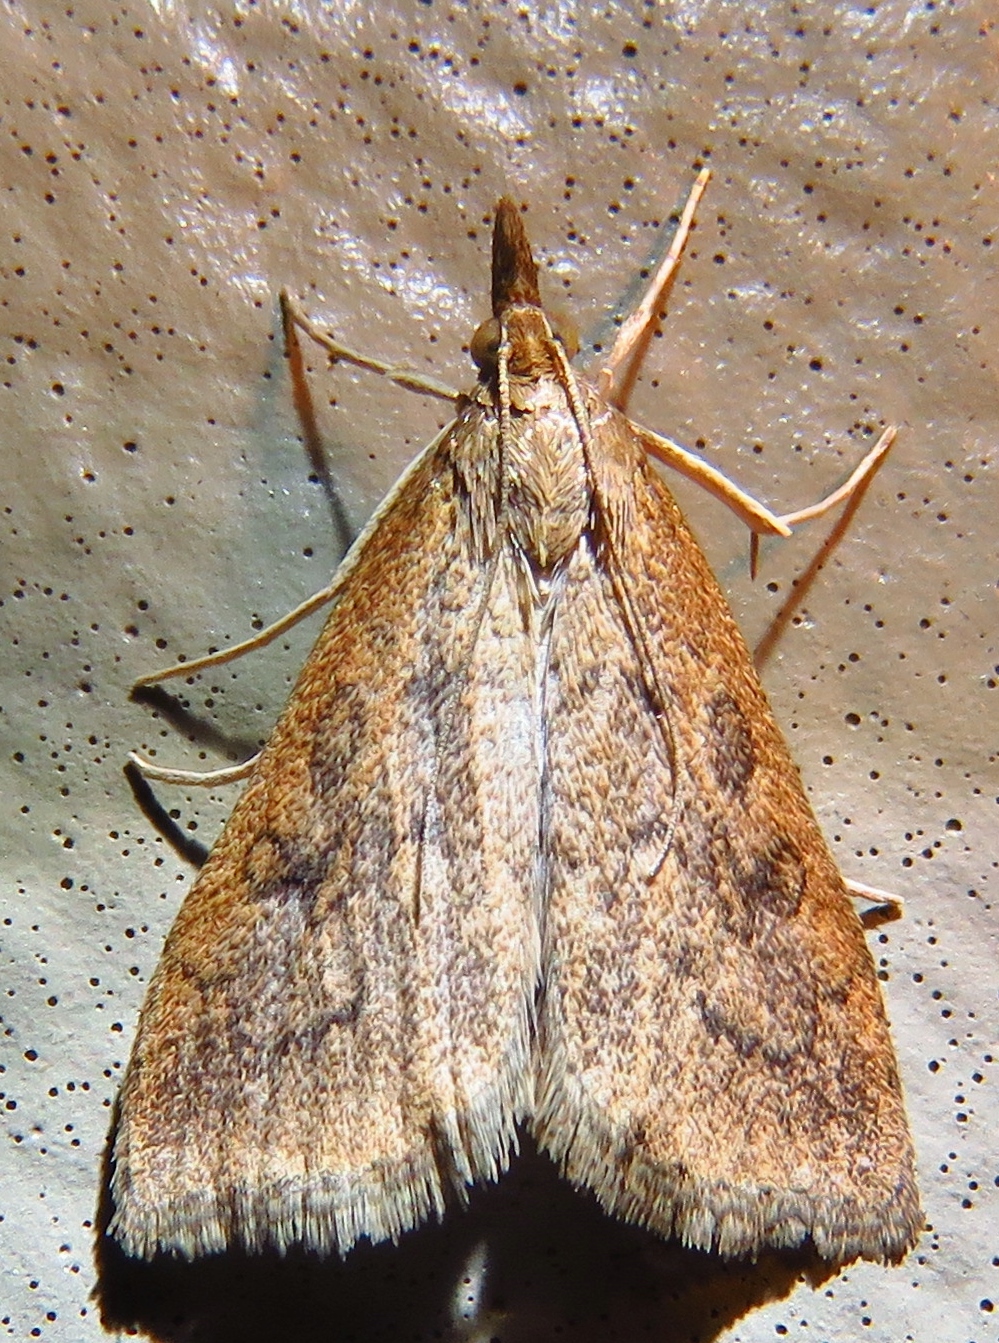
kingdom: Animalia
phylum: Arthropoda
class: Insecta
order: Lepidoptera
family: Crambidae
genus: Udea
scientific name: Udea rubigalis
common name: Celery leaftier moth
